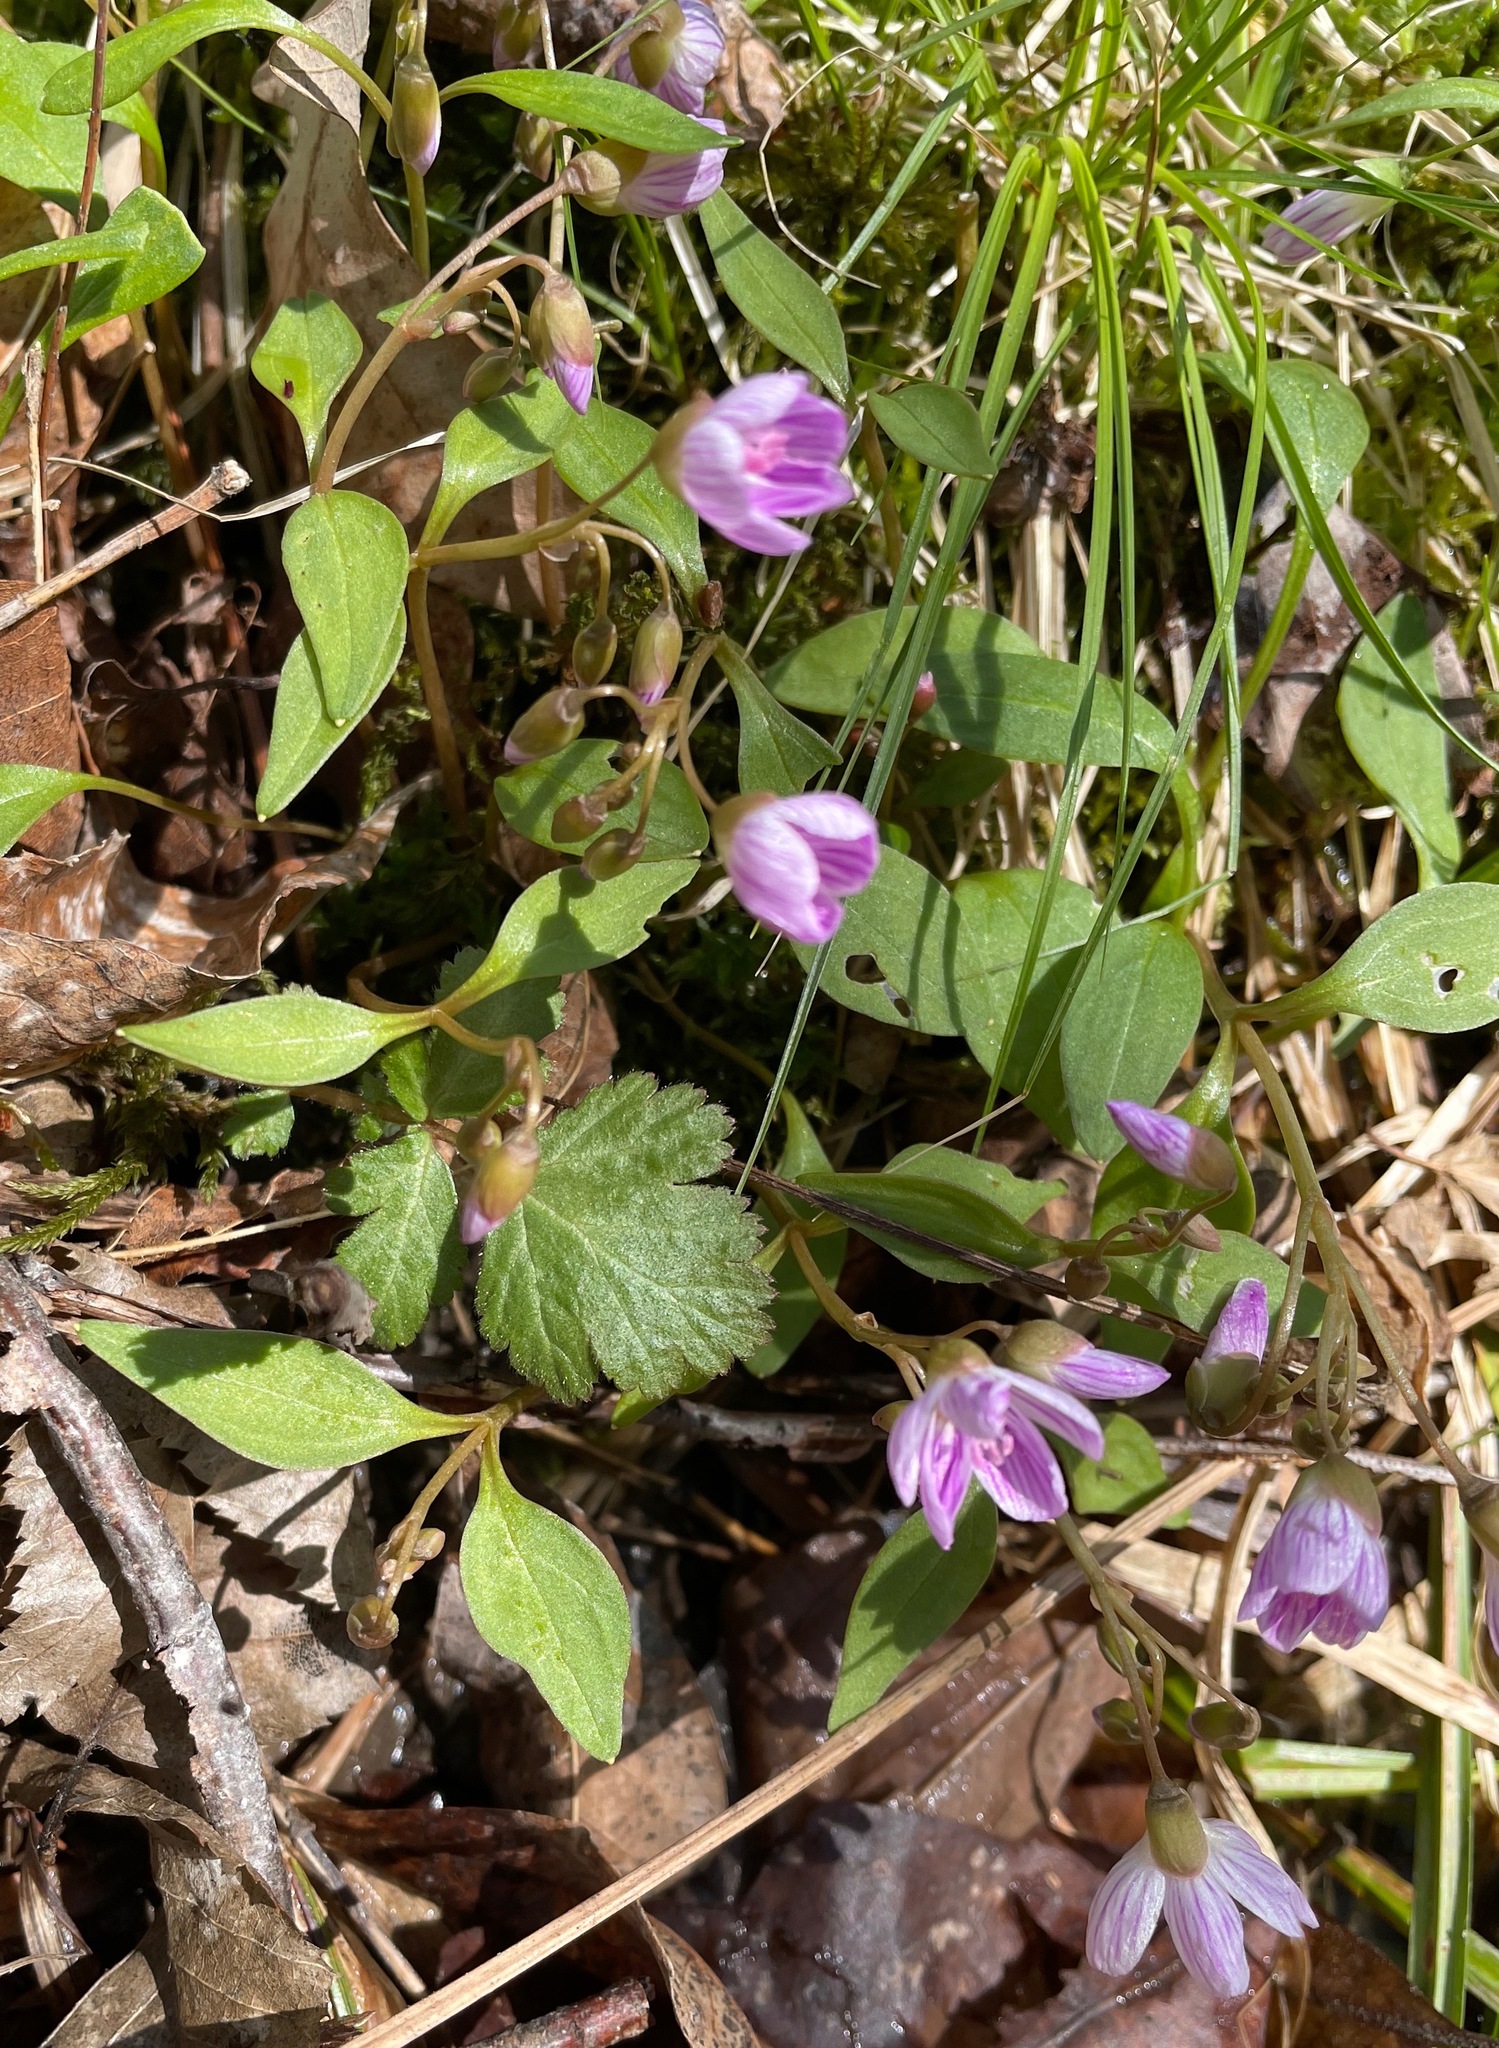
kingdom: Plantae
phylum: Tracheophyta
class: Magnoliopsida
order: Caryophyllales
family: Montiaceae
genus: Claytonia
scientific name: Claytonia caroliniana
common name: Carolina spring beauty
